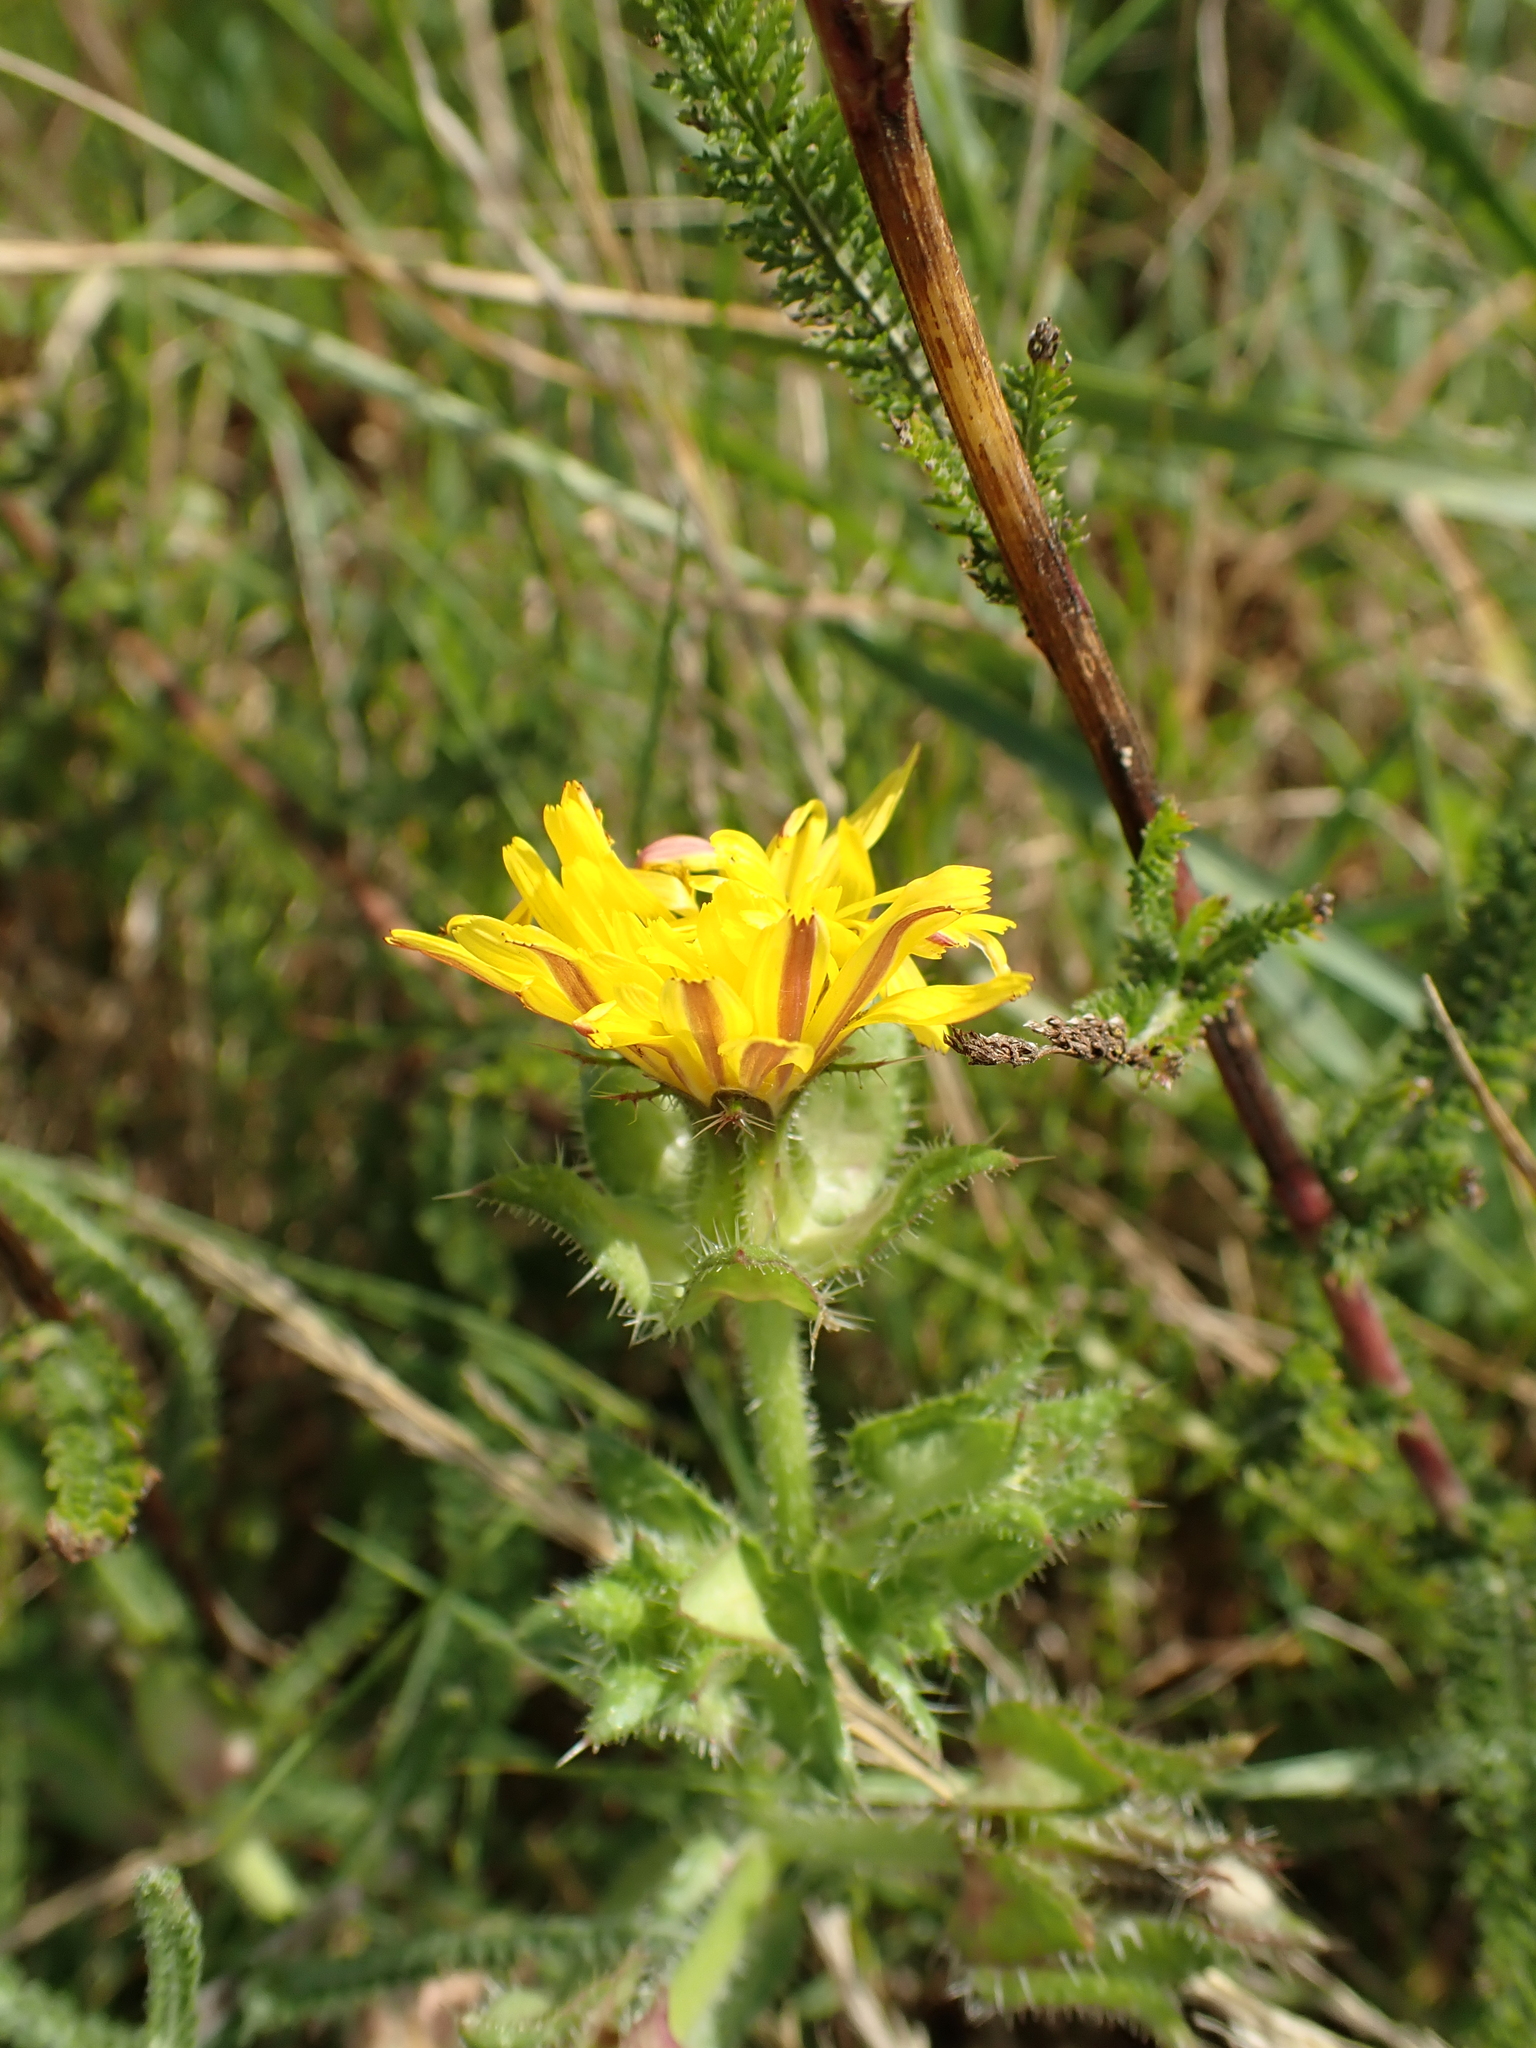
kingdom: Plantae
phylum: Tracheophyta
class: Magnoliopsida
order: Asterales
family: Asteraceae
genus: Helminthotheca
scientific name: Helminthotheca echioides
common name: Ox-tongue
